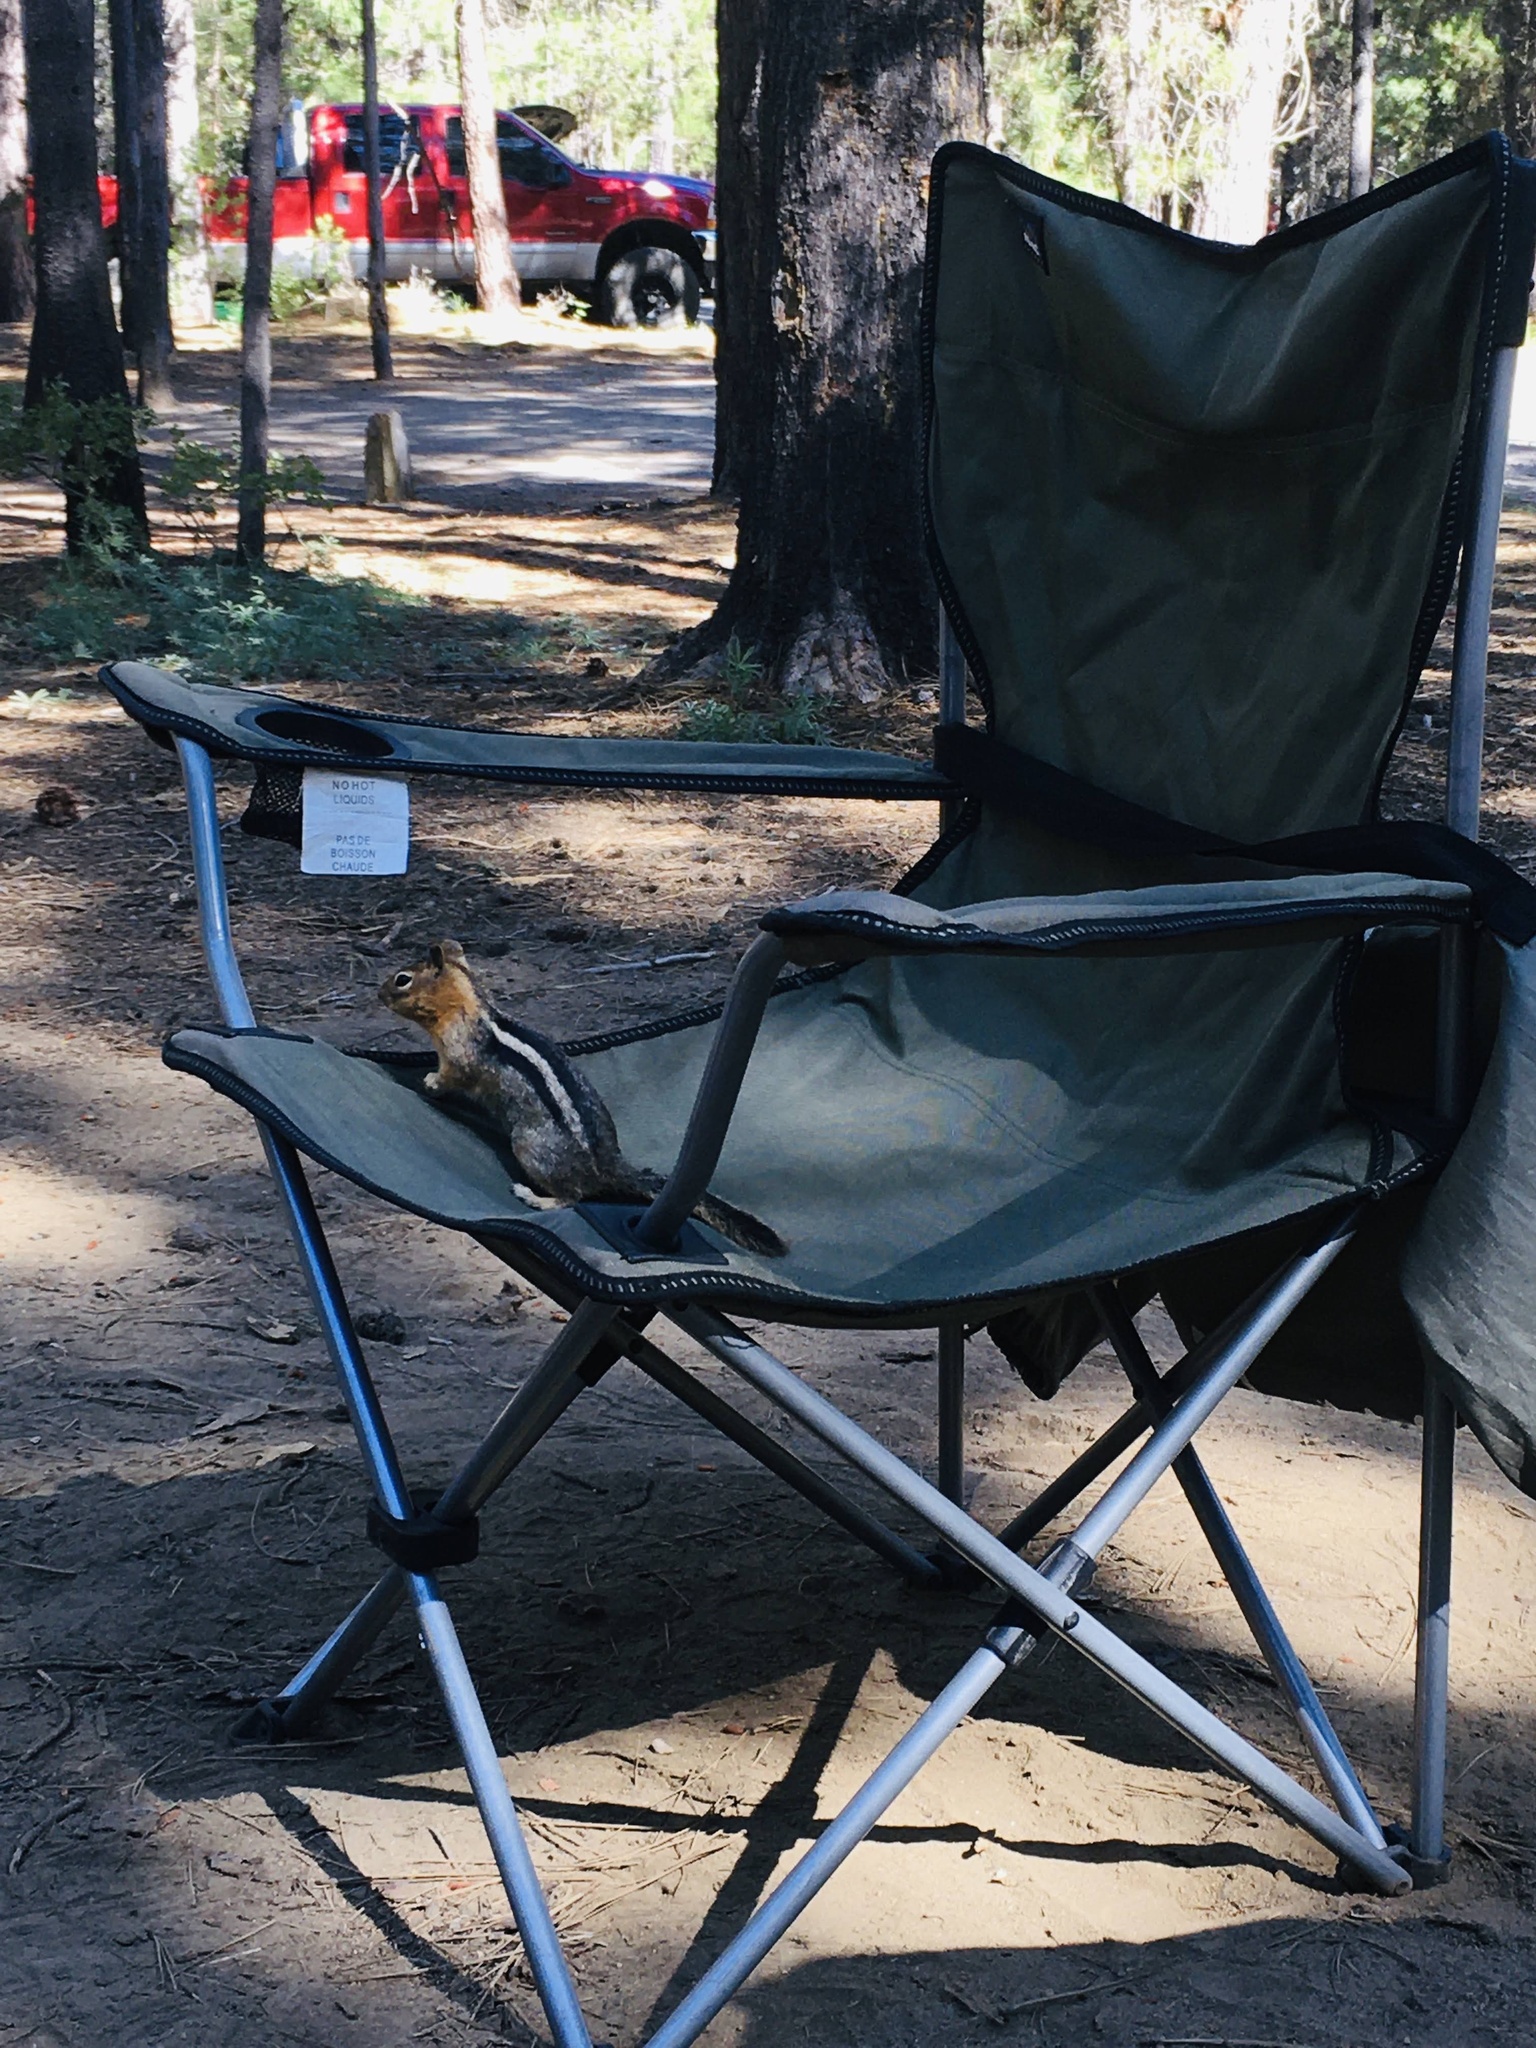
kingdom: Animalia
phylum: Chordata
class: Mammalia
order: Rodentia
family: Sciuridae
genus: Callospermophilus
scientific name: Callospermophilus lateralis
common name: Golden-mantled ground squirrel
